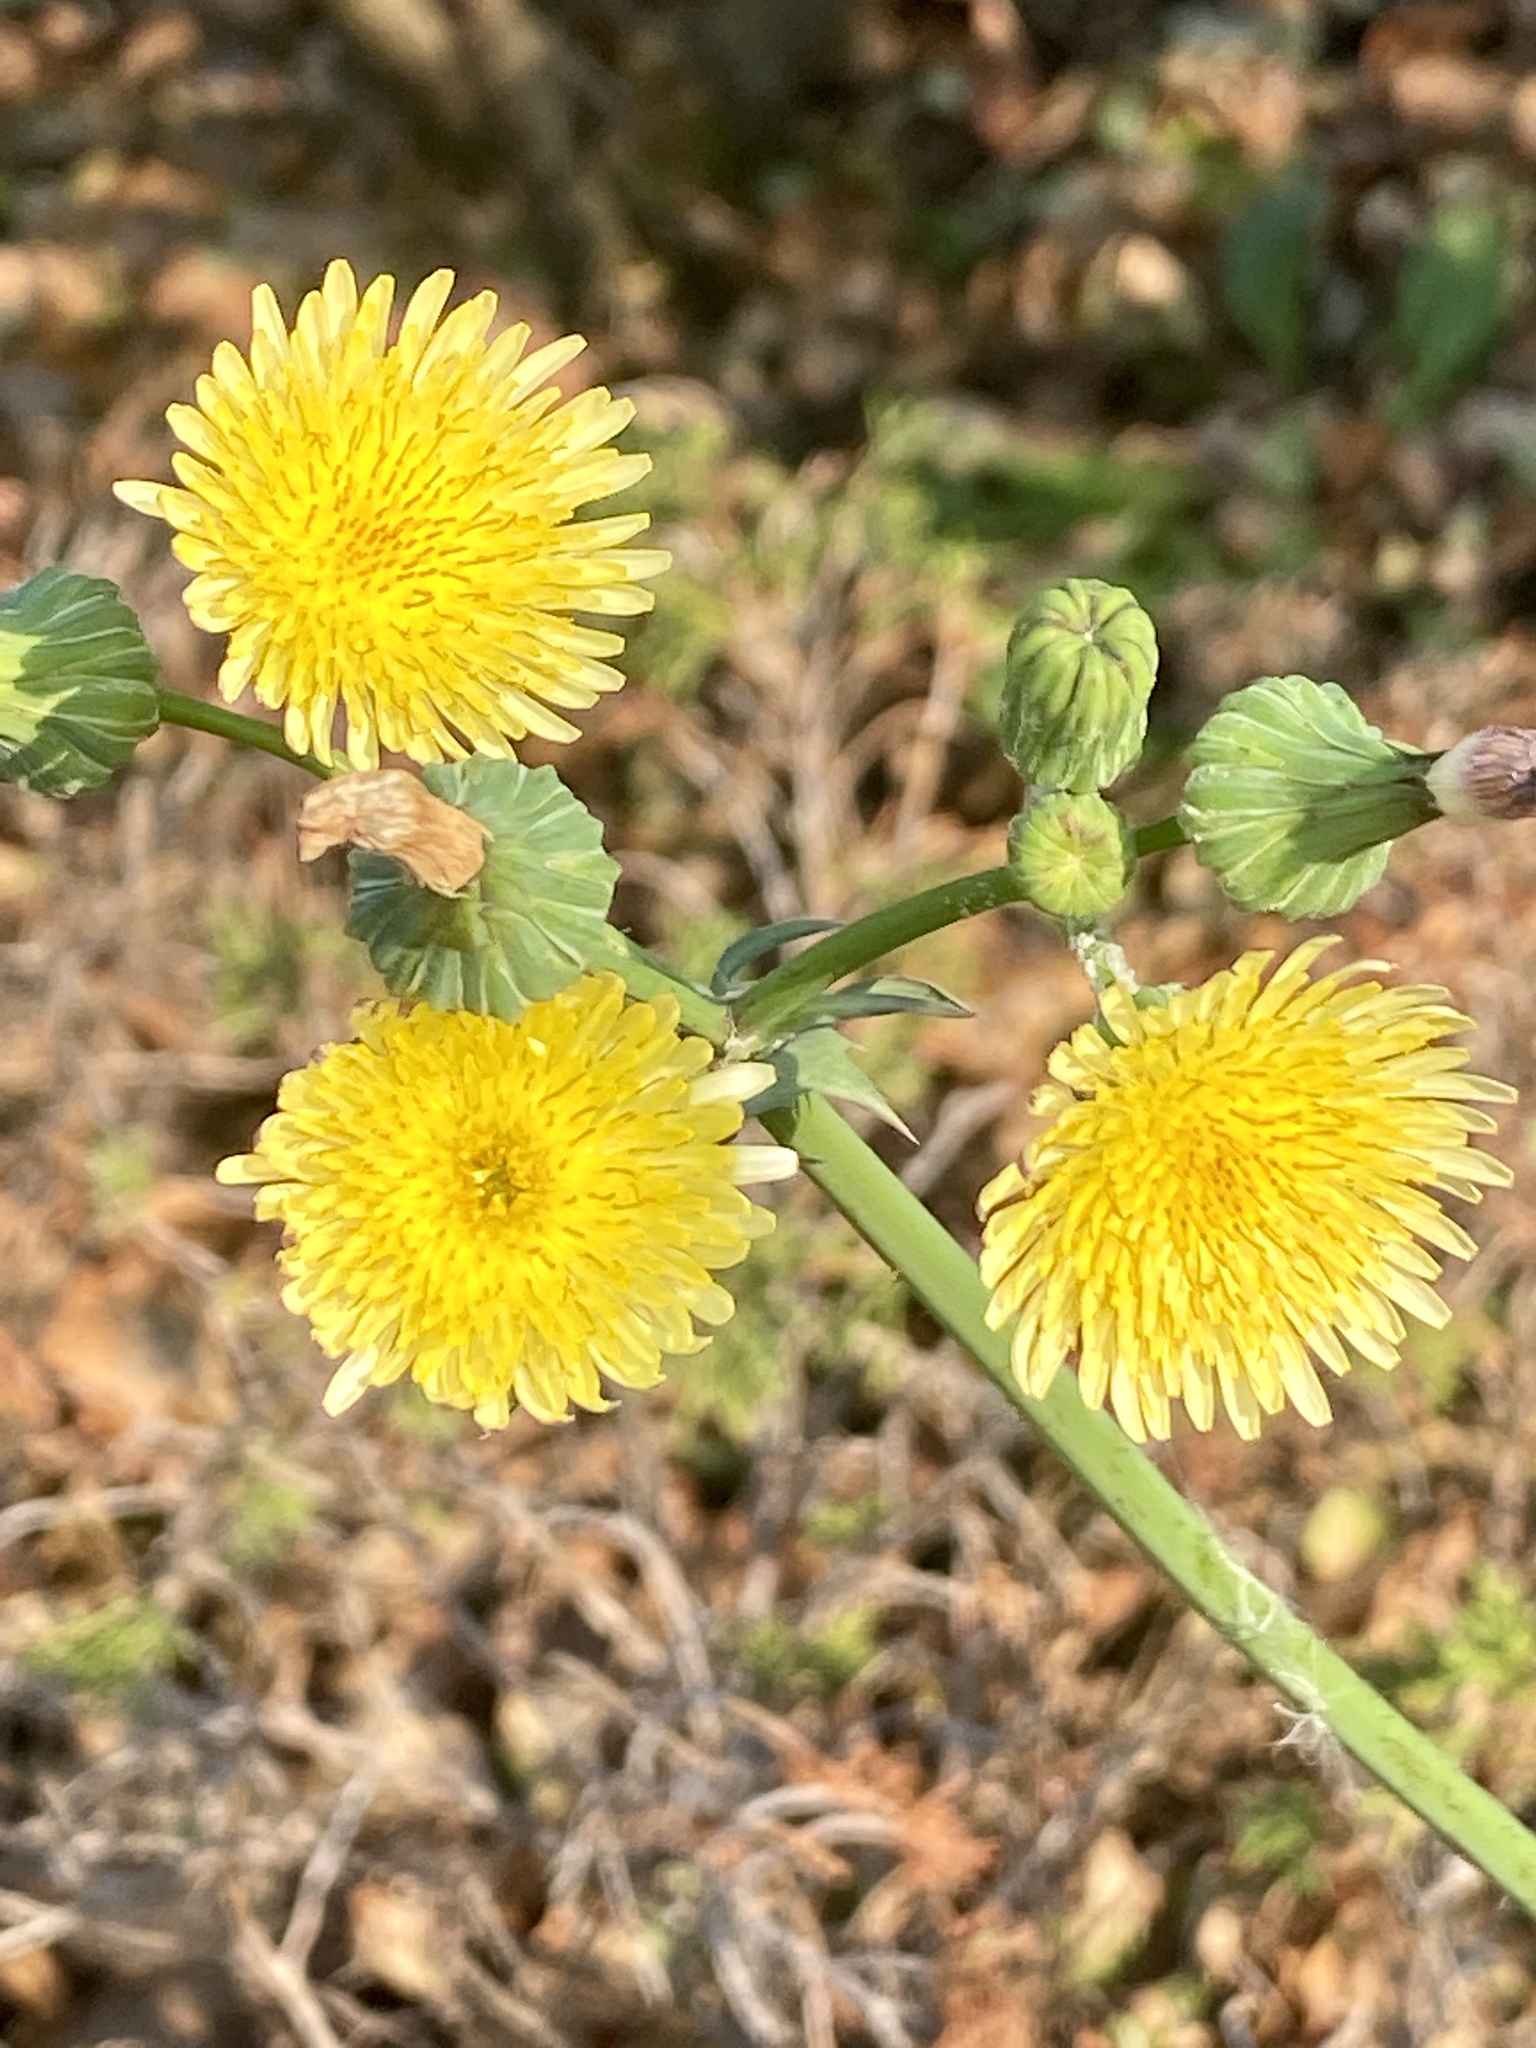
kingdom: Plantae
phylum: Tracheophyta
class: Magnoliopsida
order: Asterales
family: Asteraceae
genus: Sonchus
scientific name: Sonchus oleraceus
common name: Common sowthistle
